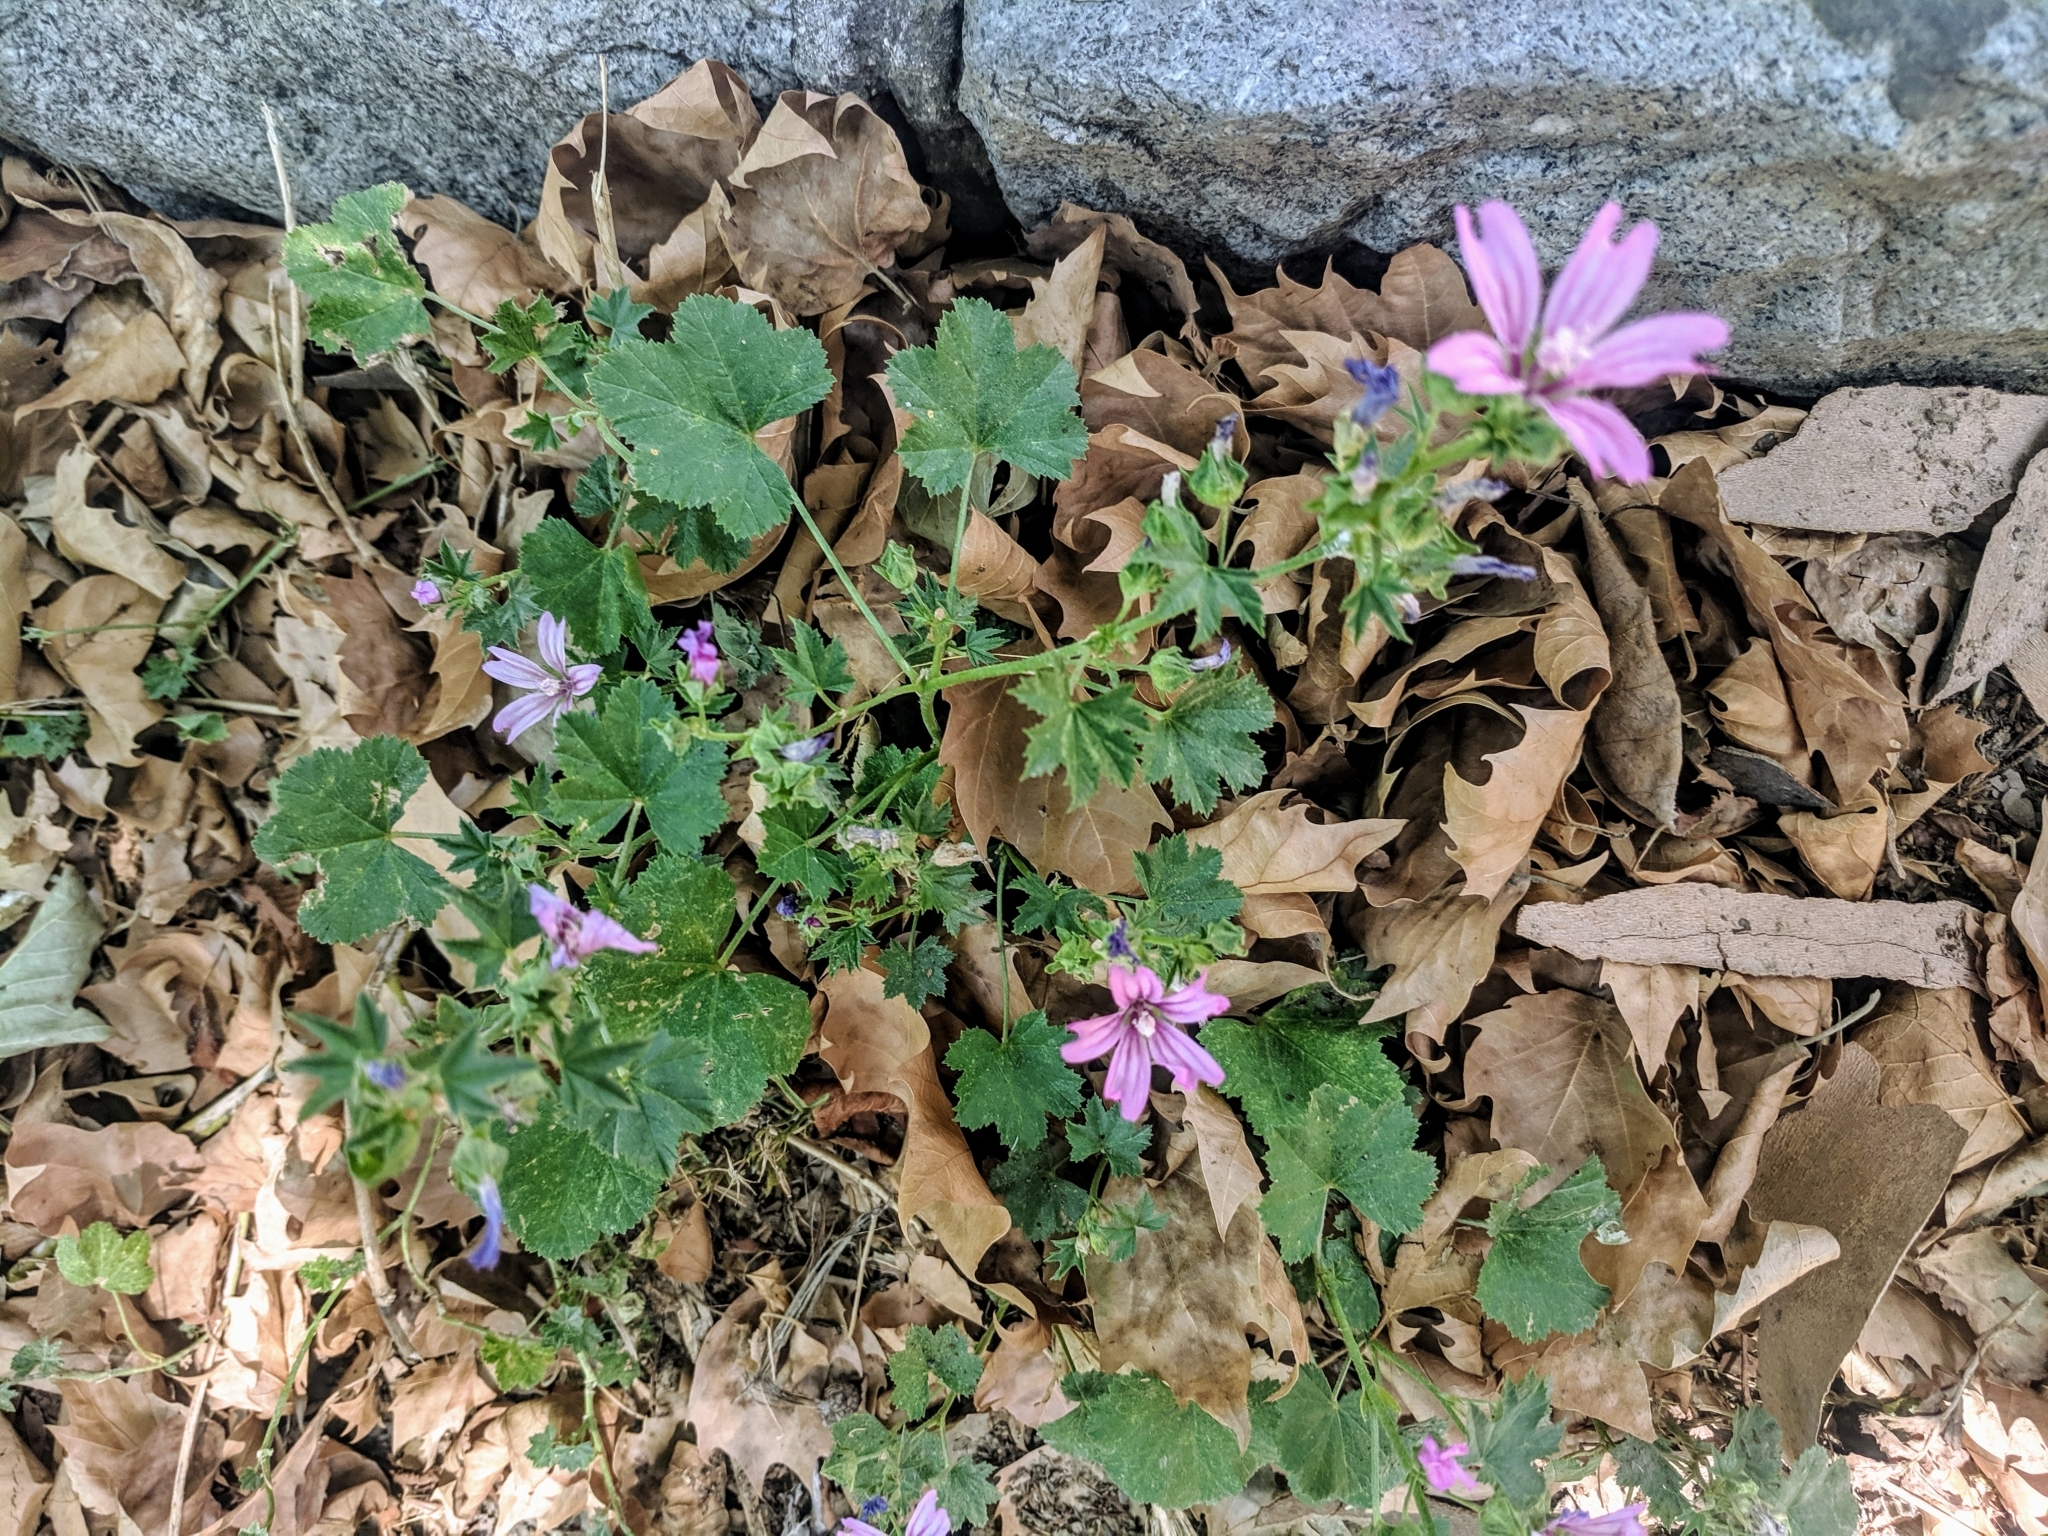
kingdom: Plantae
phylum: Tracheophyta
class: Magnoliopsida
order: Malvales
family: Malvaceae
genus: Malva
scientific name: Malva sylvestris
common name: Common mallow
